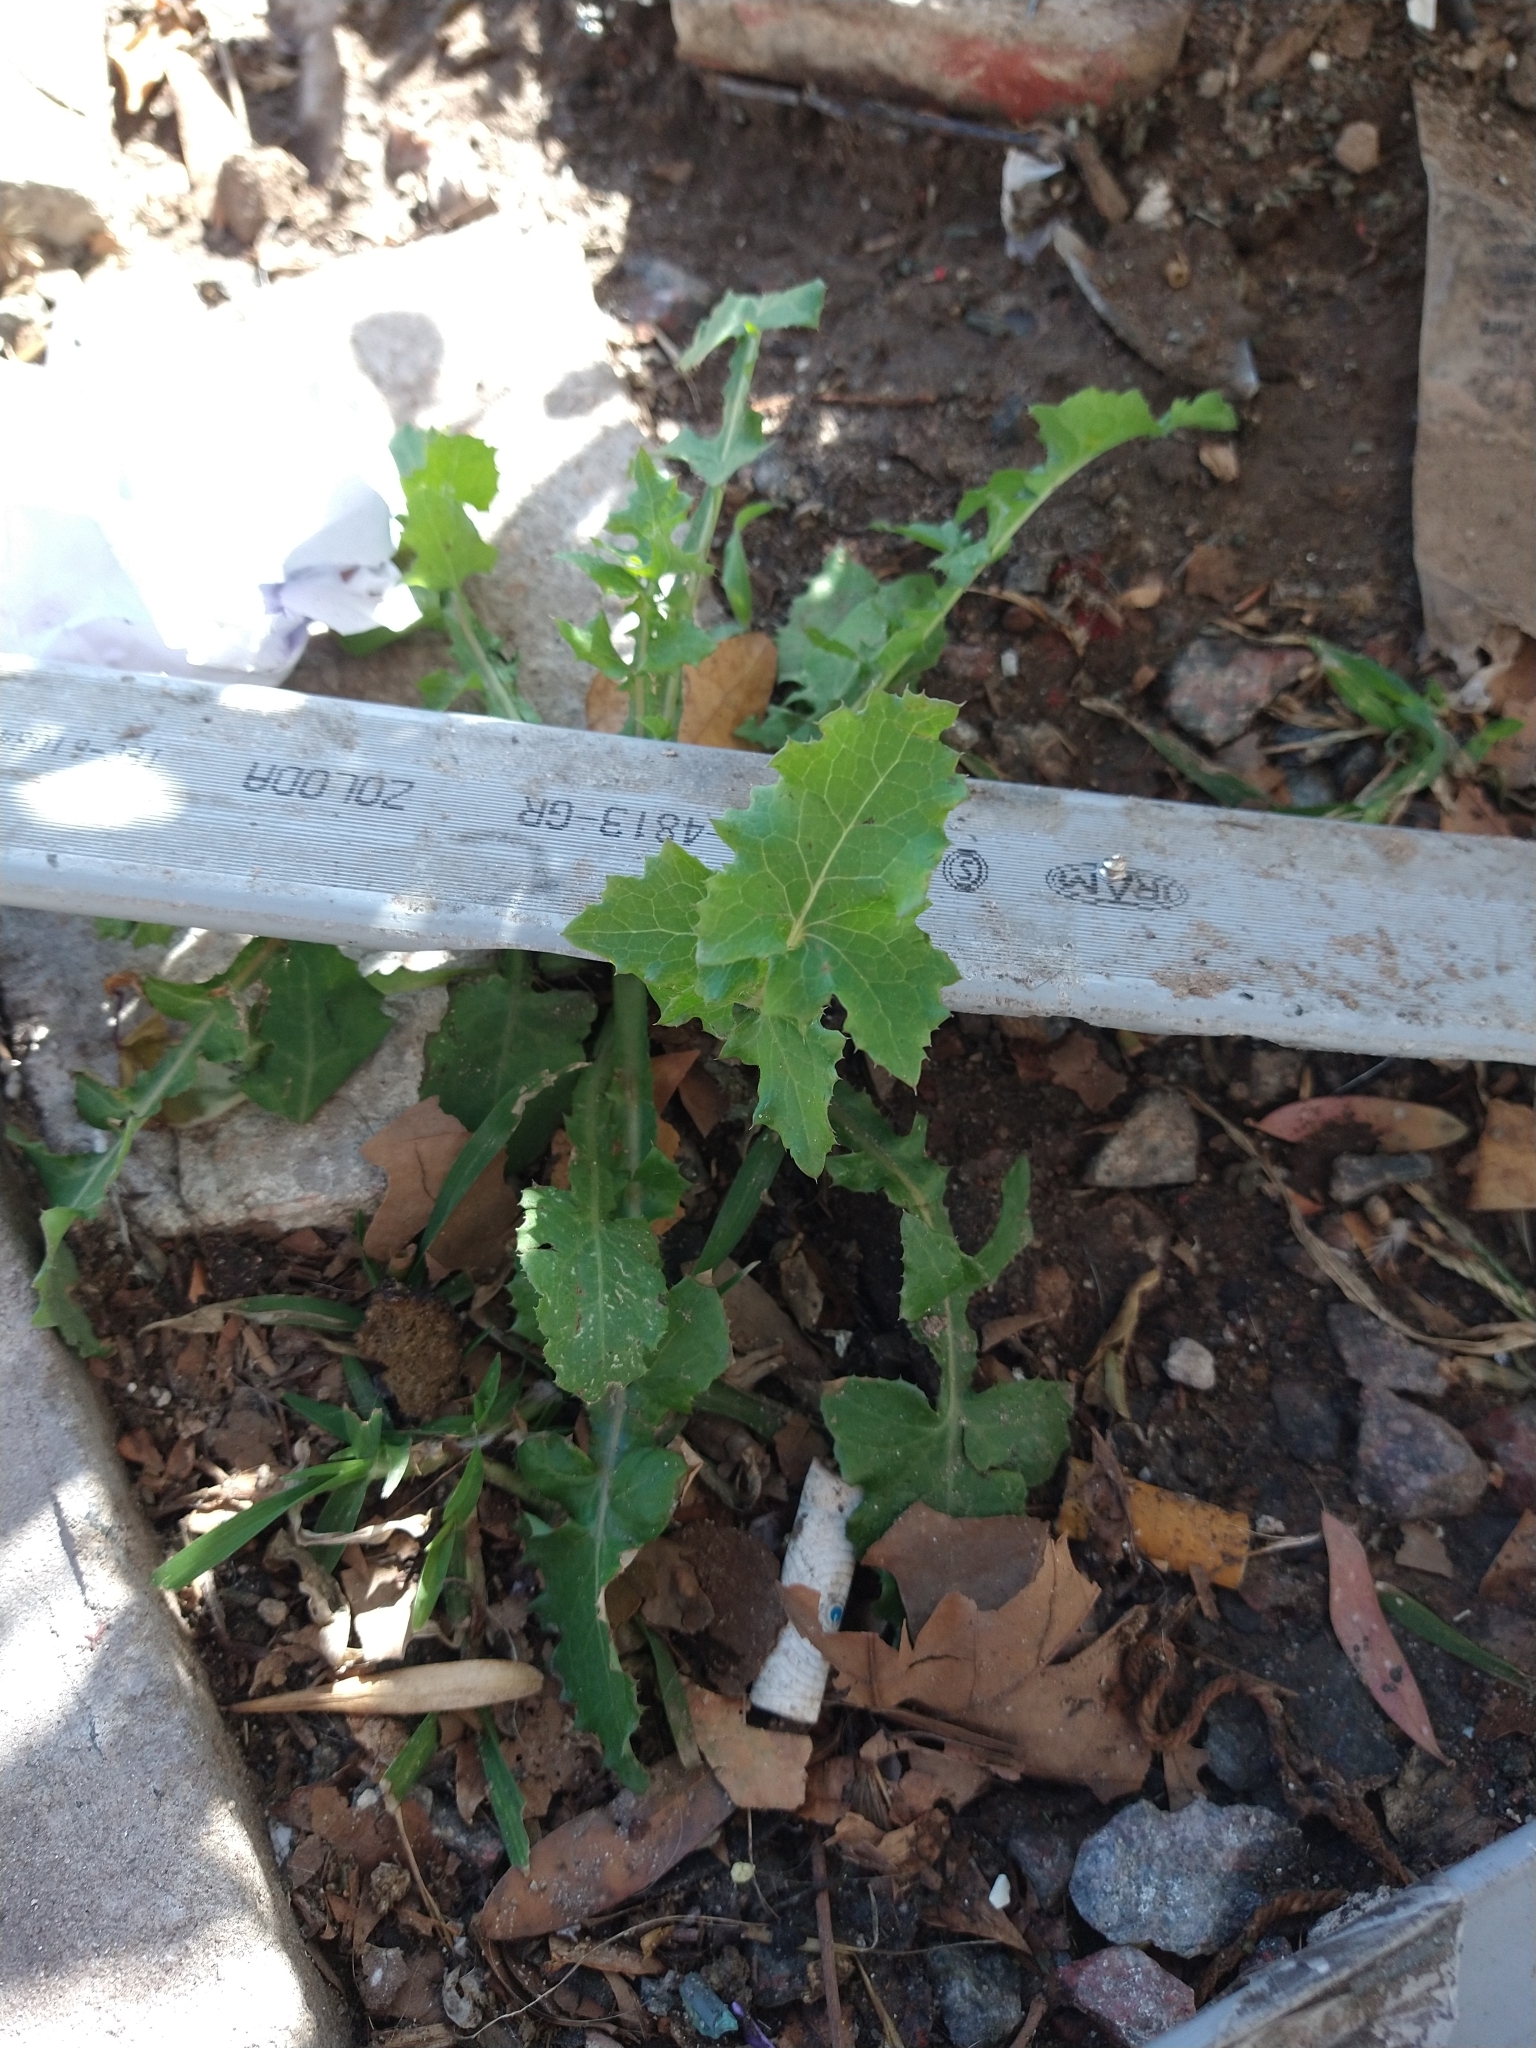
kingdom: Plantae
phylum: Tracheophyta
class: Magnoliopsida
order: Asterales
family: Asteraceae
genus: Sonchus
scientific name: Sonchus oleraceus
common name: Common sowthistle
